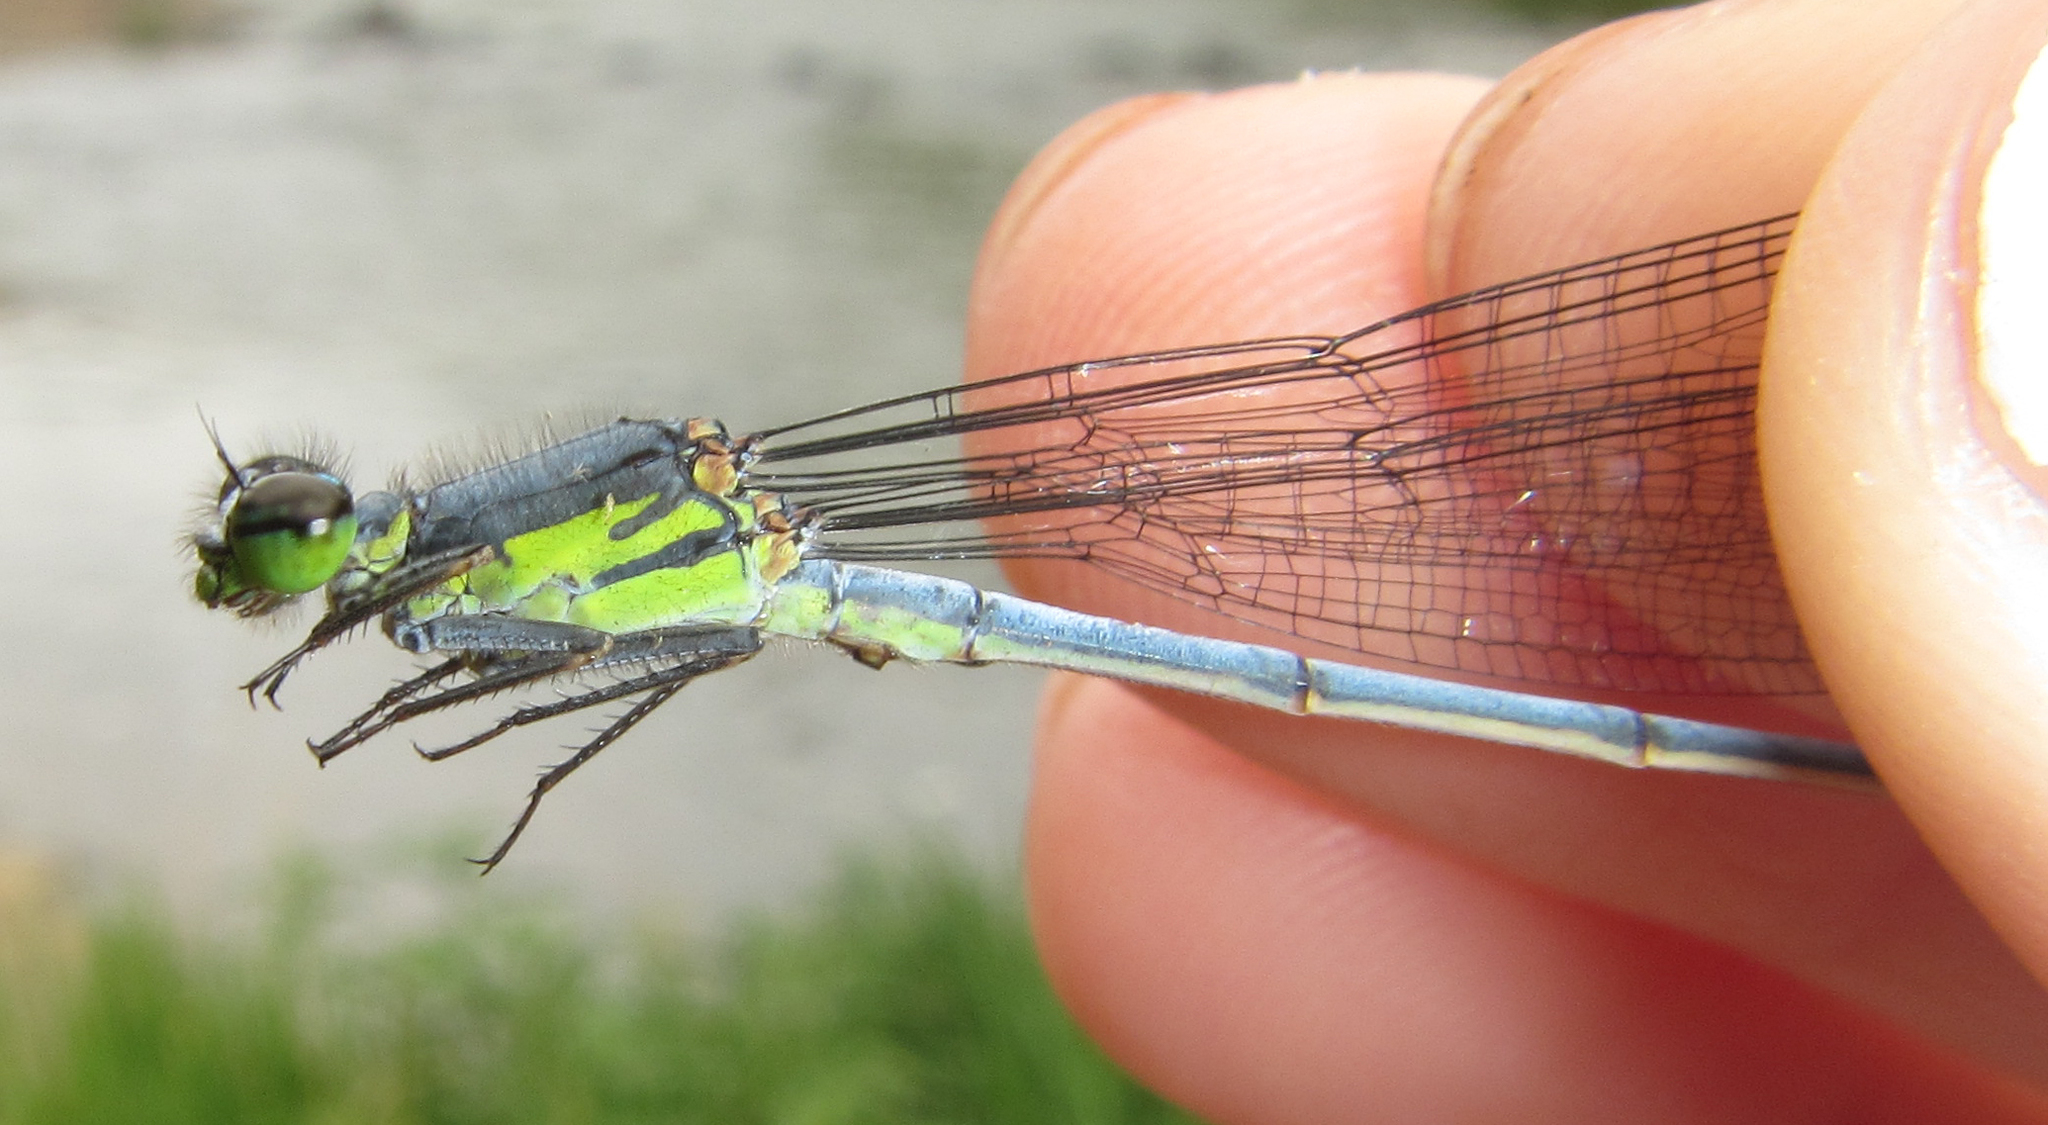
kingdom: Animalia
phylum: Arthropoda
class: Insecta
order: Odonata
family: Coenagrionidae
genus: Pseudagrion
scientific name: Pseudagrion spernatum
